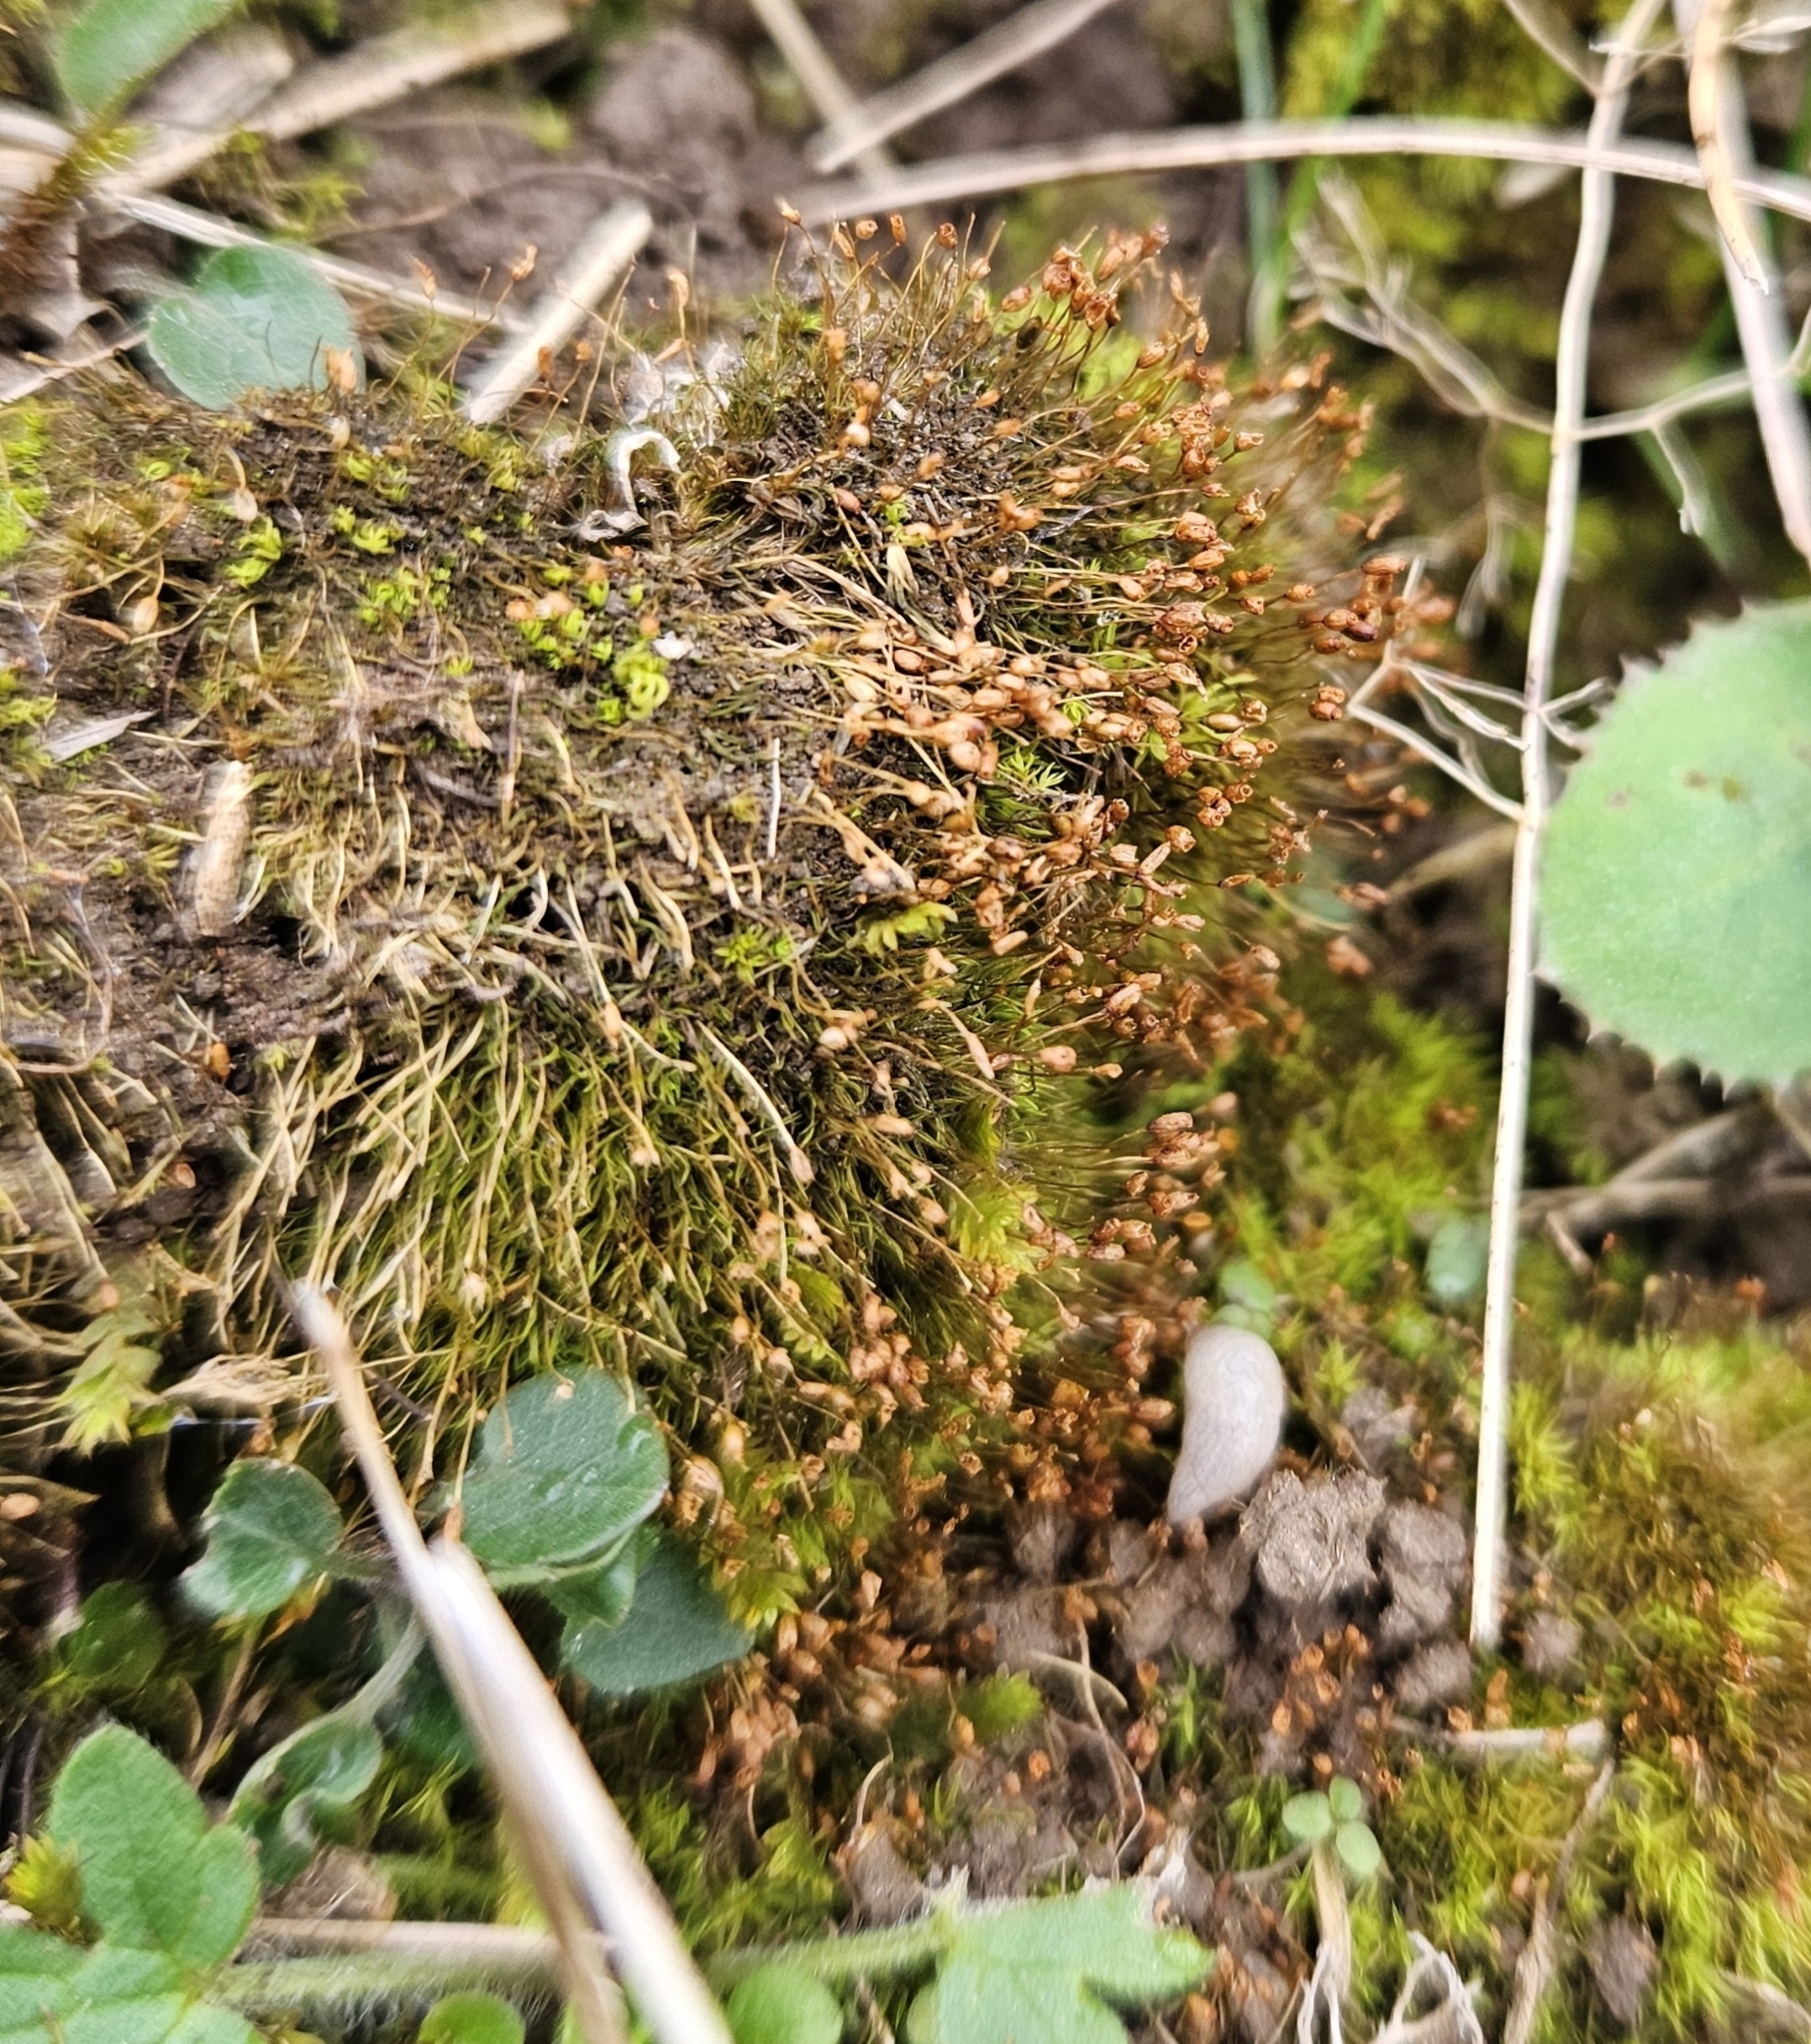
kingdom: Plantae
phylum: Bryophyta
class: Bryopsida
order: Pottiales
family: Pottiaceae
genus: Weissia
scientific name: Weissia controversa
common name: Green-tufted stubble moss
